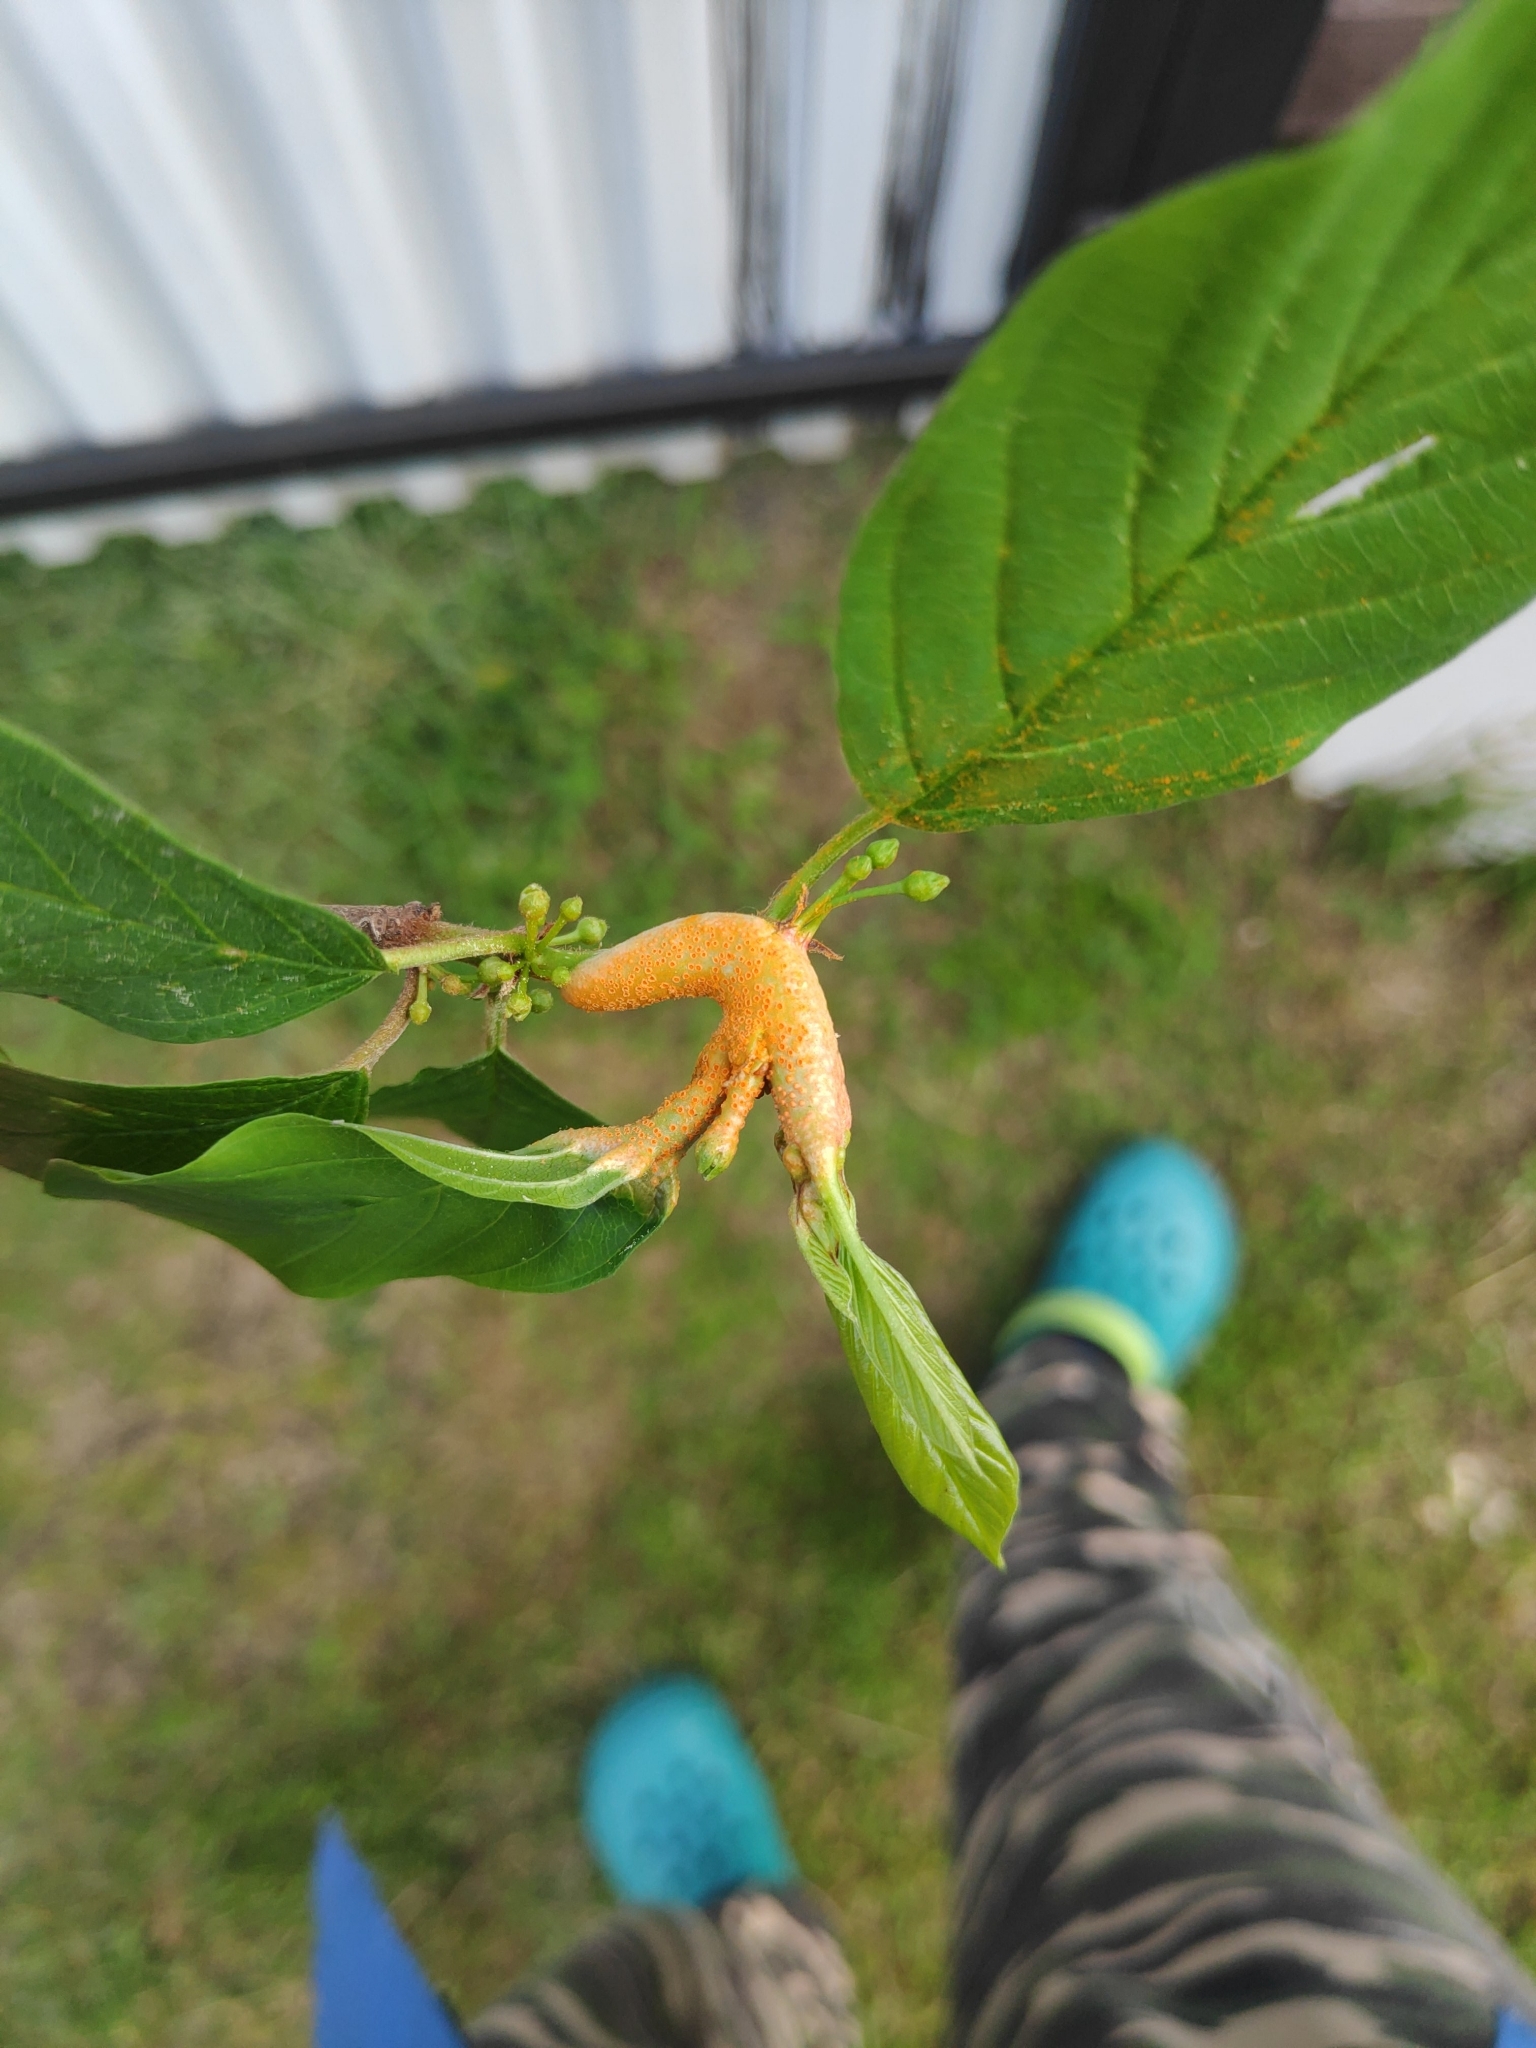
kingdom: Fungi
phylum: Basidiomycota
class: Pucciniomycetes
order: Pucciniales
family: Pucciniaceae
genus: Puccinia
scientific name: Puccinia coronata
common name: Crown rust
